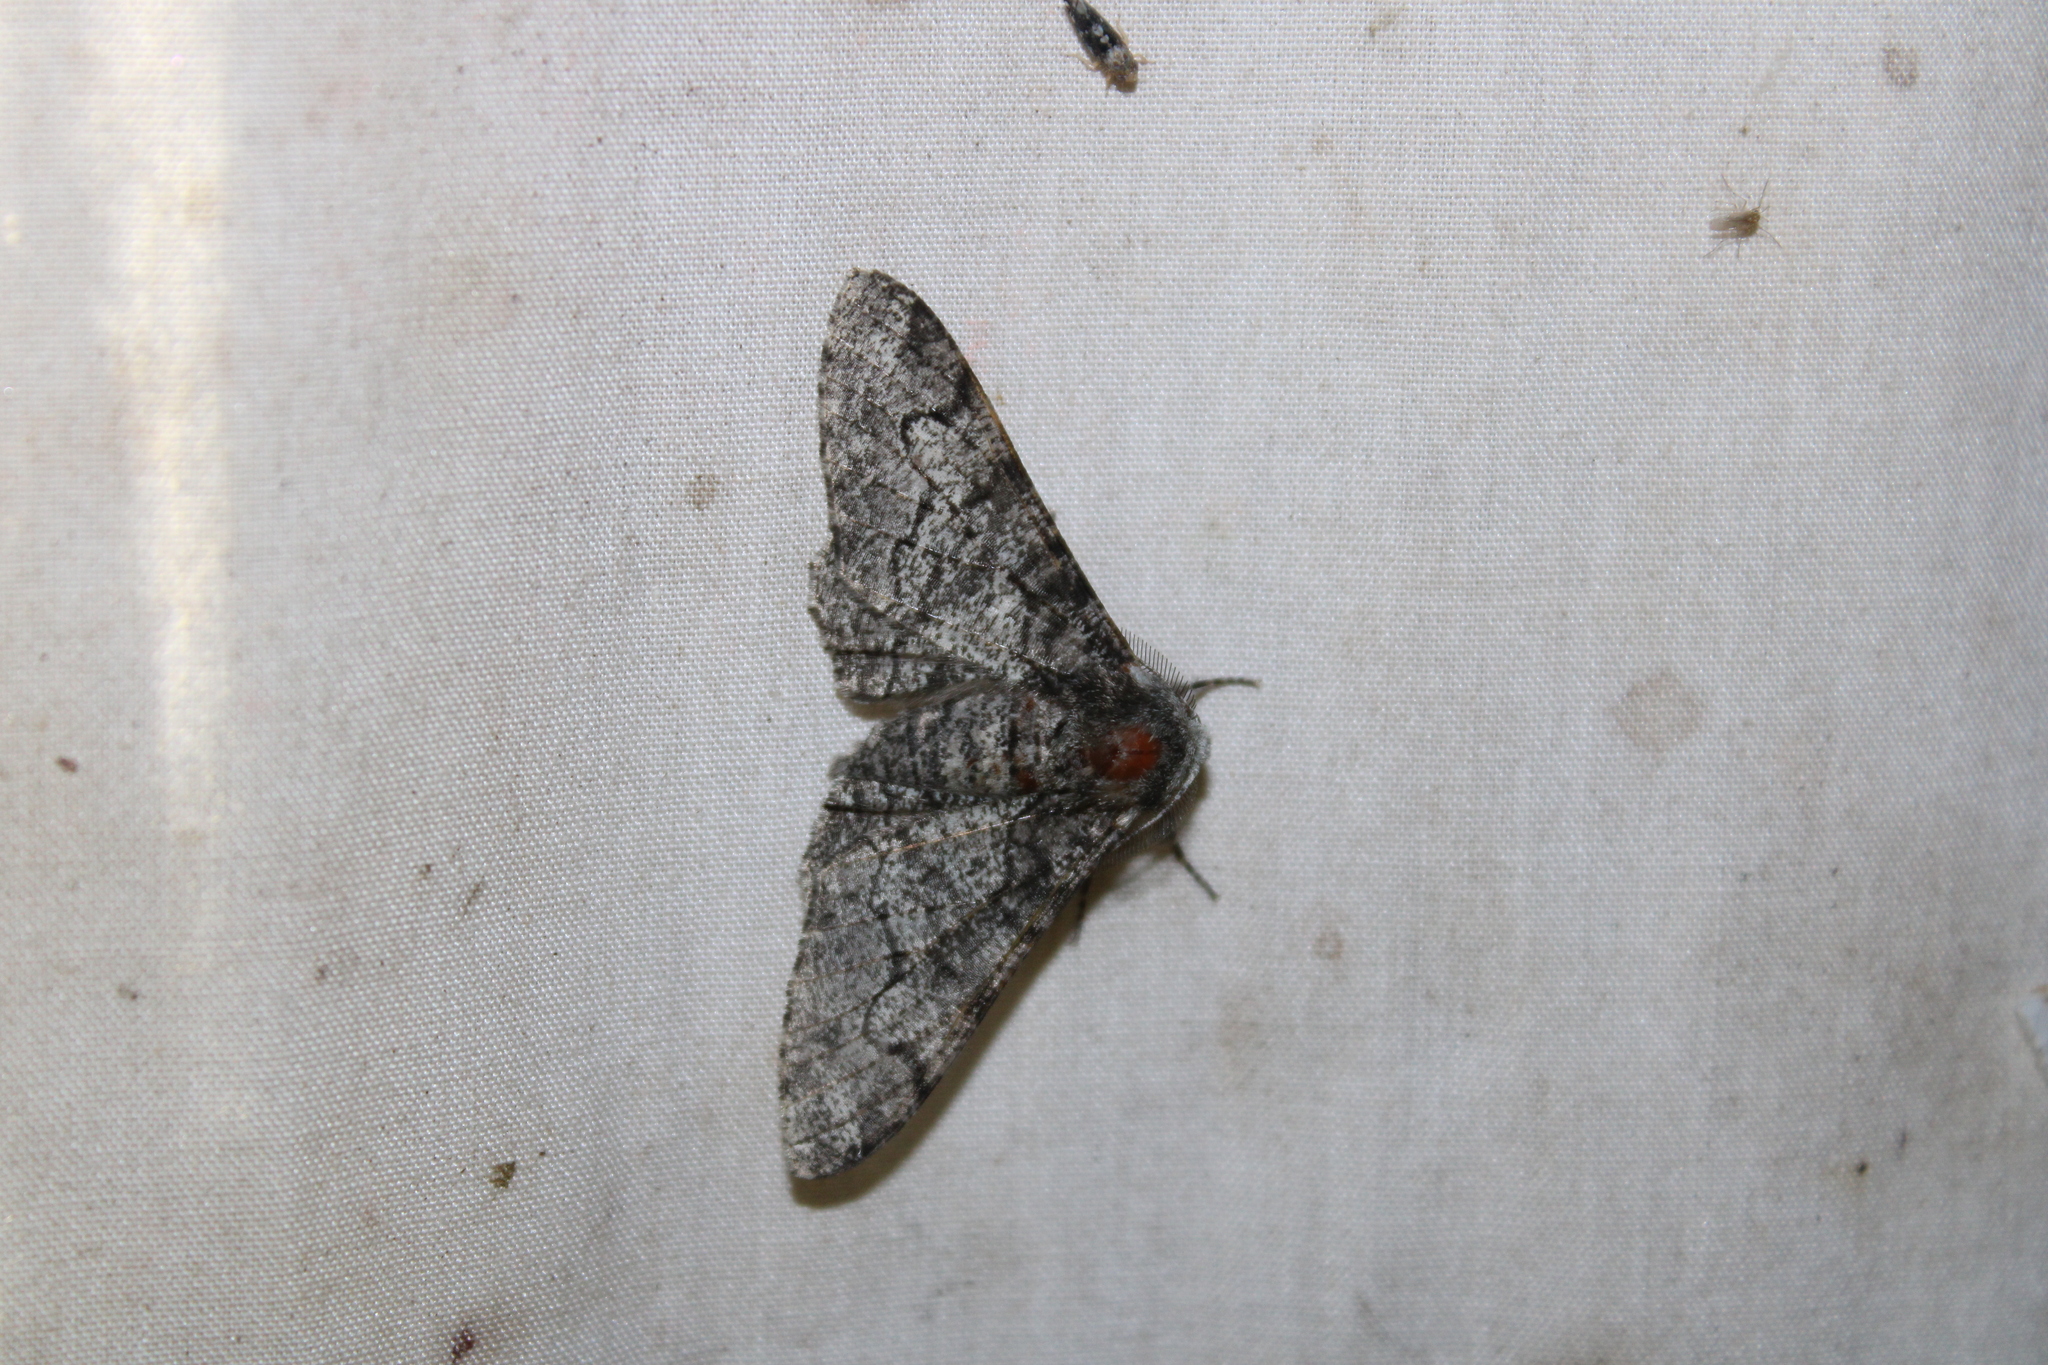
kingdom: Animalia
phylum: Arthropoda
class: Insecta
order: Lepidoptera
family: Geometridae
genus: Biston
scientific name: Biston betularia
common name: Peppered moth
